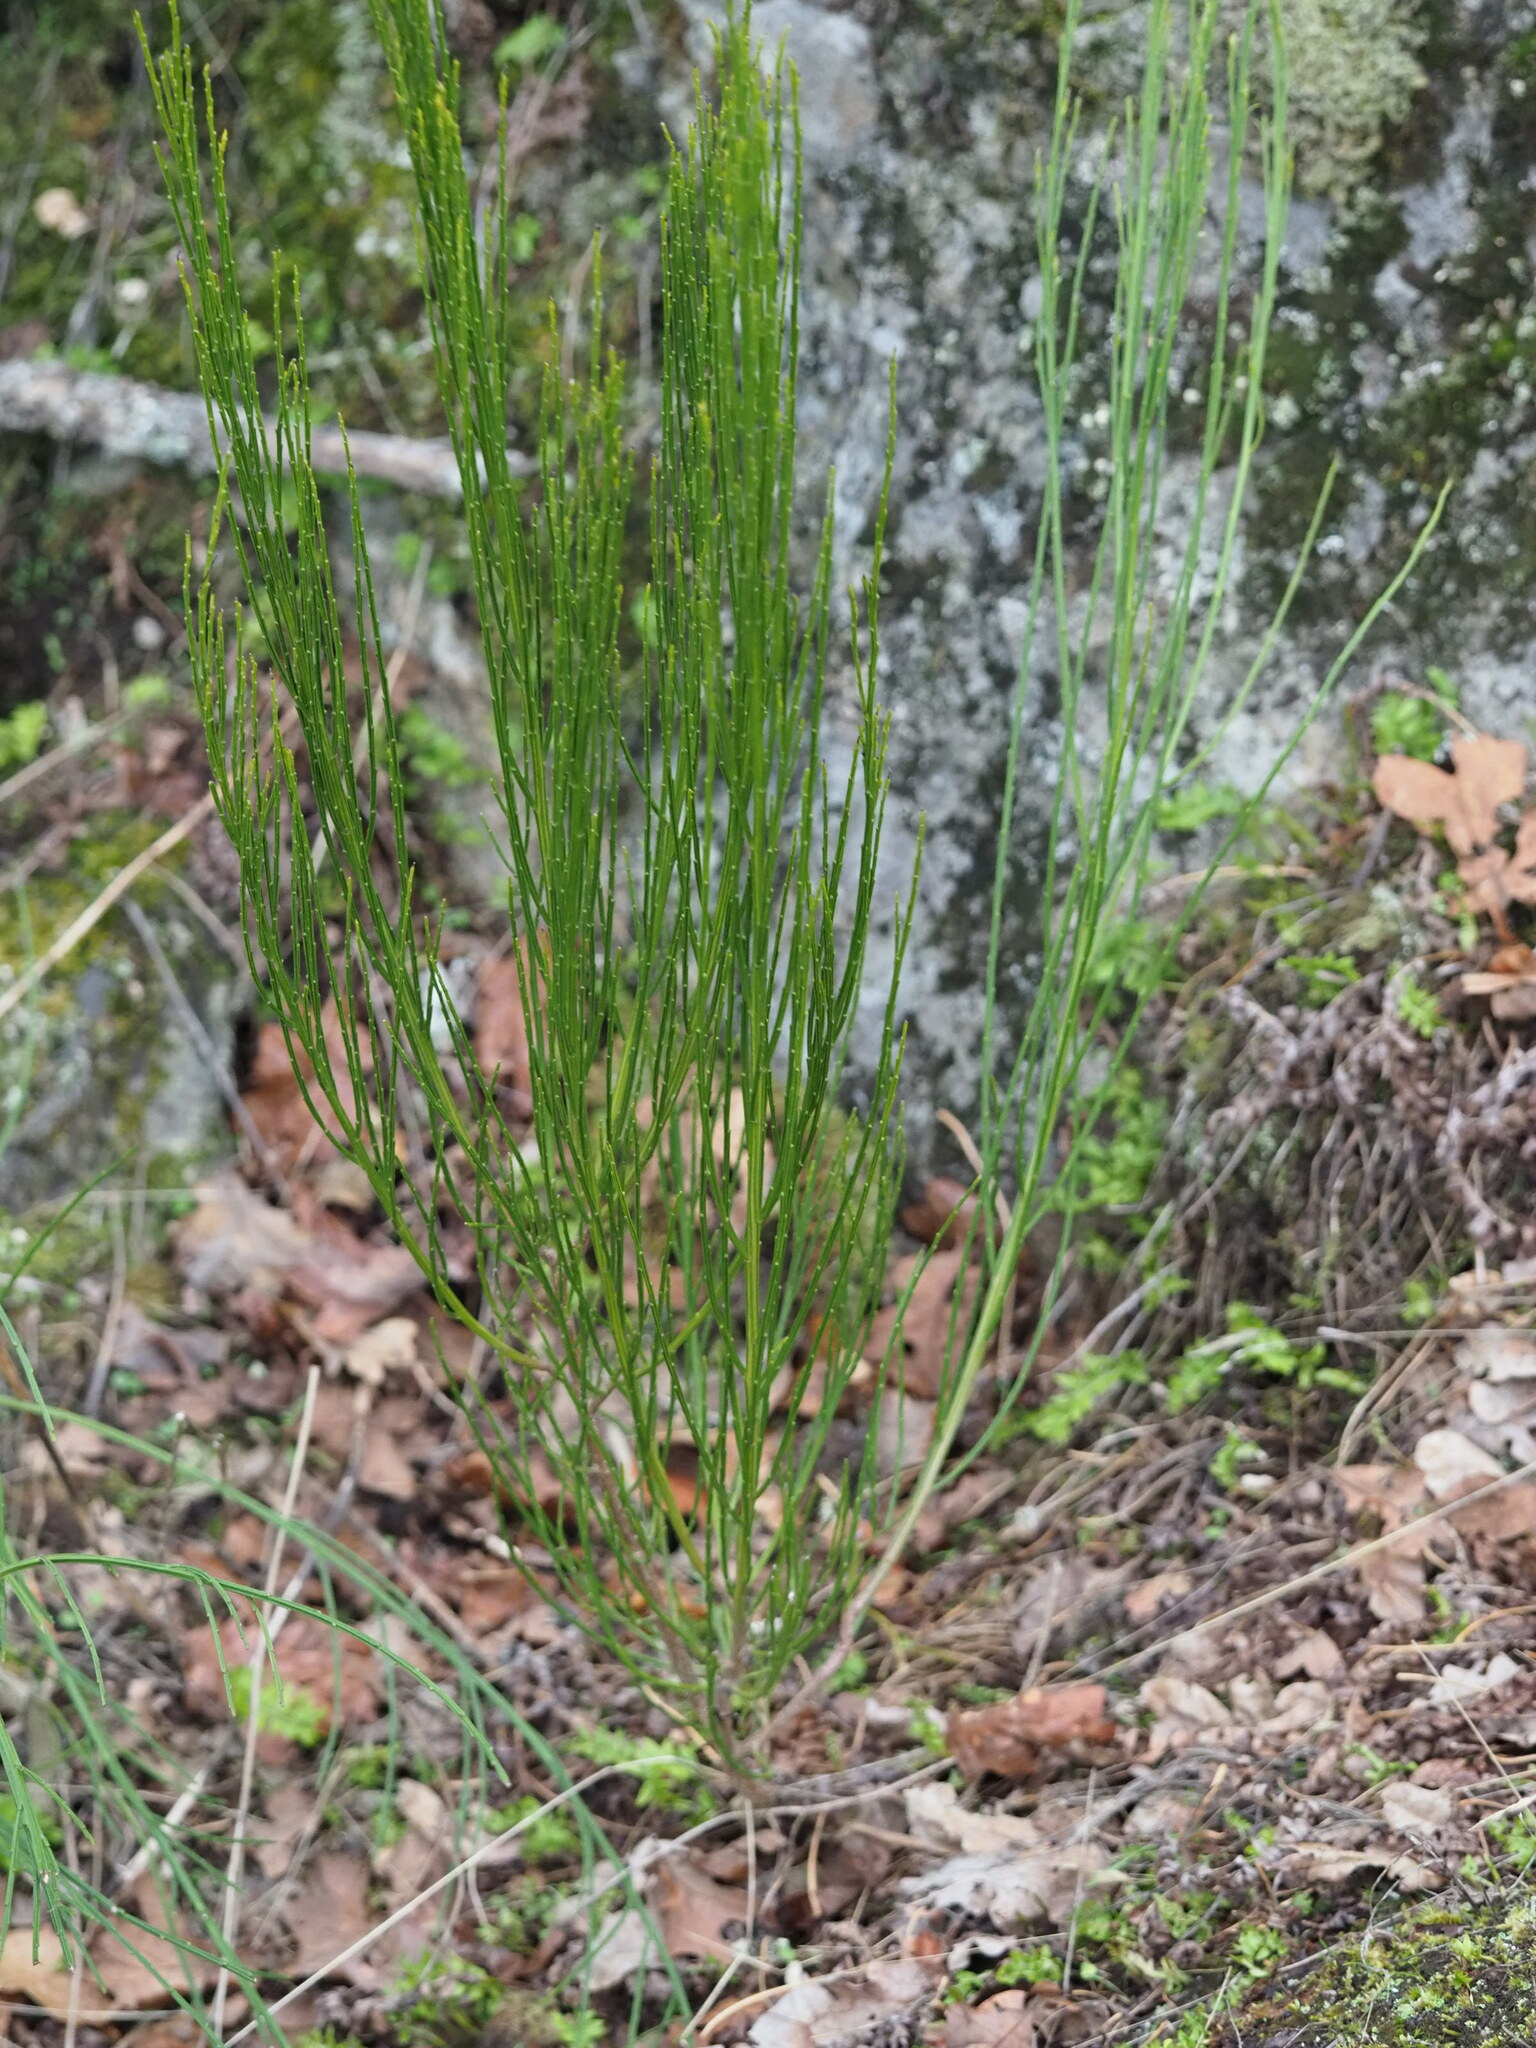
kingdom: Plantae
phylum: Tracheophyta
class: Magnoliopsida
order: Fabales
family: Fabaceae
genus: Cytisus
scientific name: Cytisus scoparius
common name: Scotch broom
